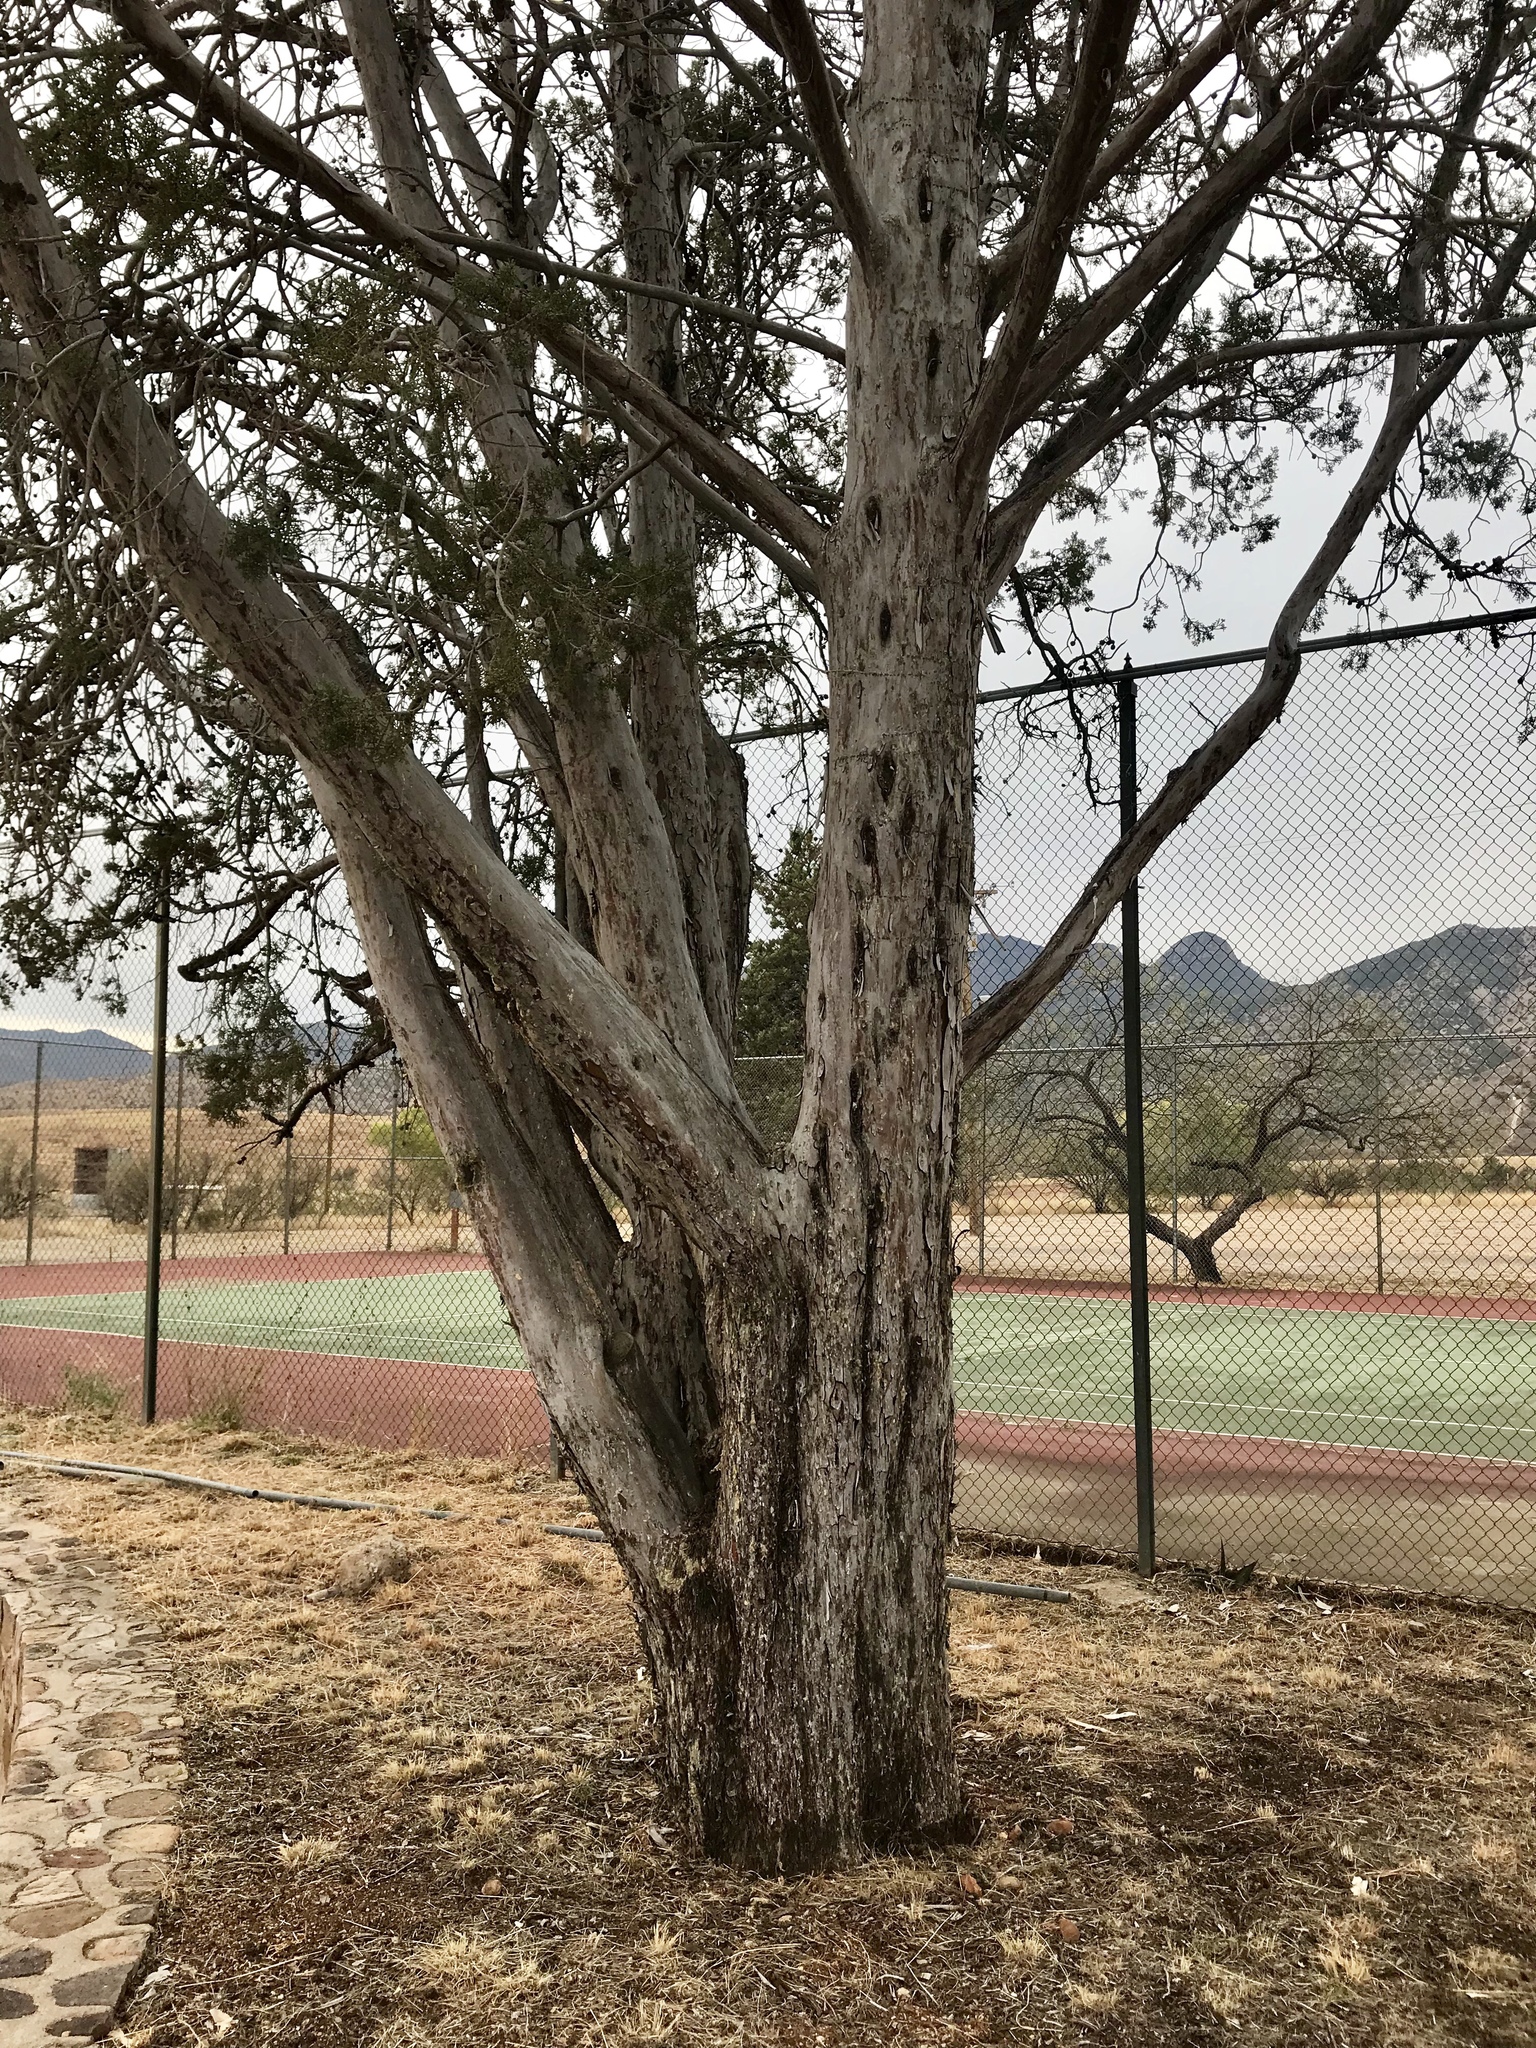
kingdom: Plantae
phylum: Tracheophyta
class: Pinopsida
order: Pinales
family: Cupressaceae
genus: Cupressus
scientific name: Cupressus arizonica
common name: Arizona cypress
